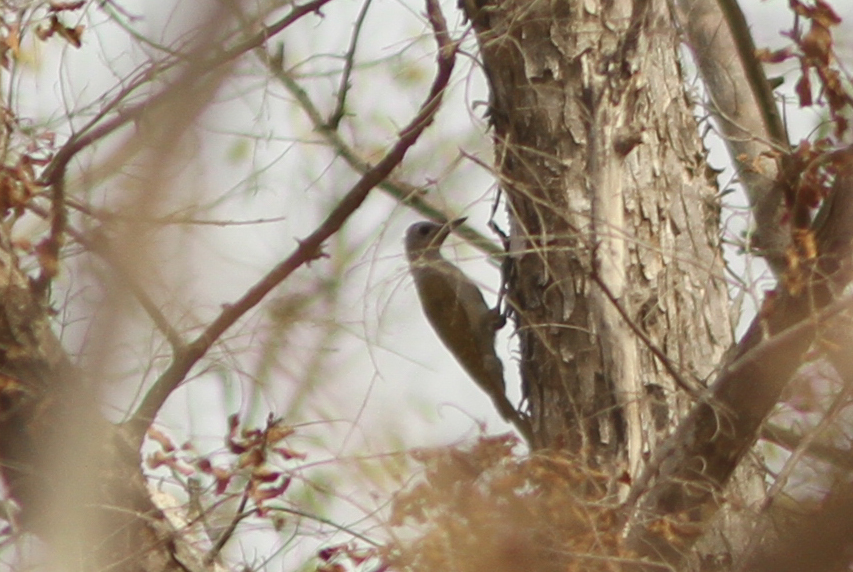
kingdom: Animalia
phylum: Chordata
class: Aves
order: Piciformes
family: Picidae
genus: Dendropicos
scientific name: Dendropicos goertae
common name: African grey woodpecker
